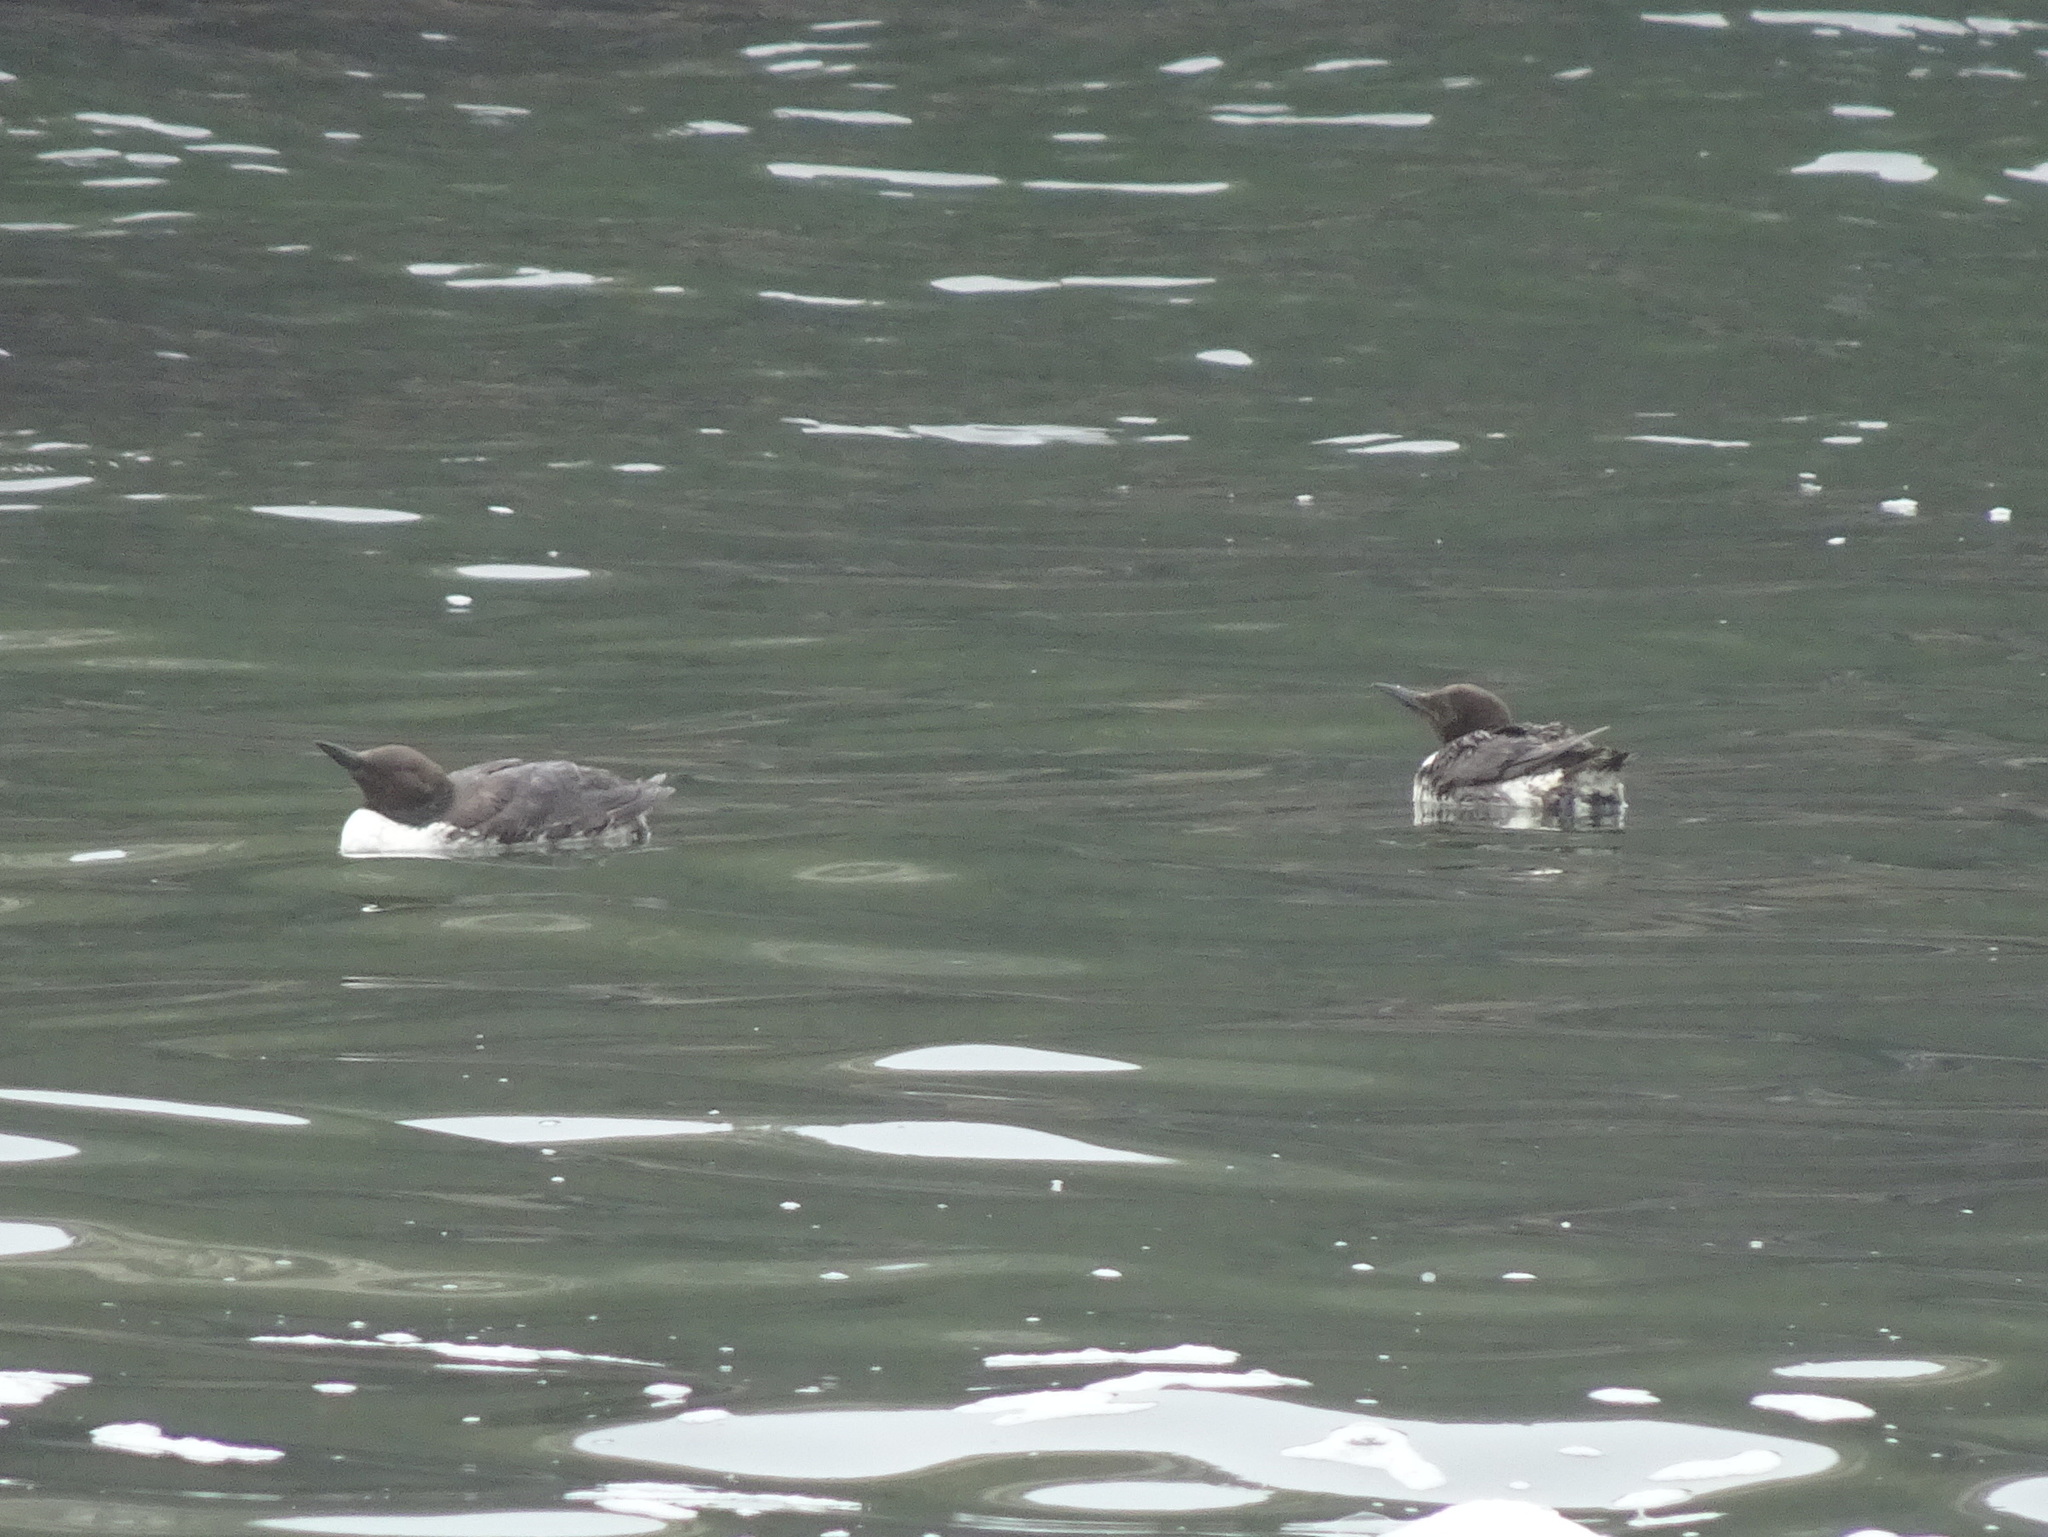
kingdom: Animalia
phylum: Chordata
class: Aves
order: Charadriiformes
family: Alcidae
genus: Uria
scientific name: Uria aalge
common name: Common murre
